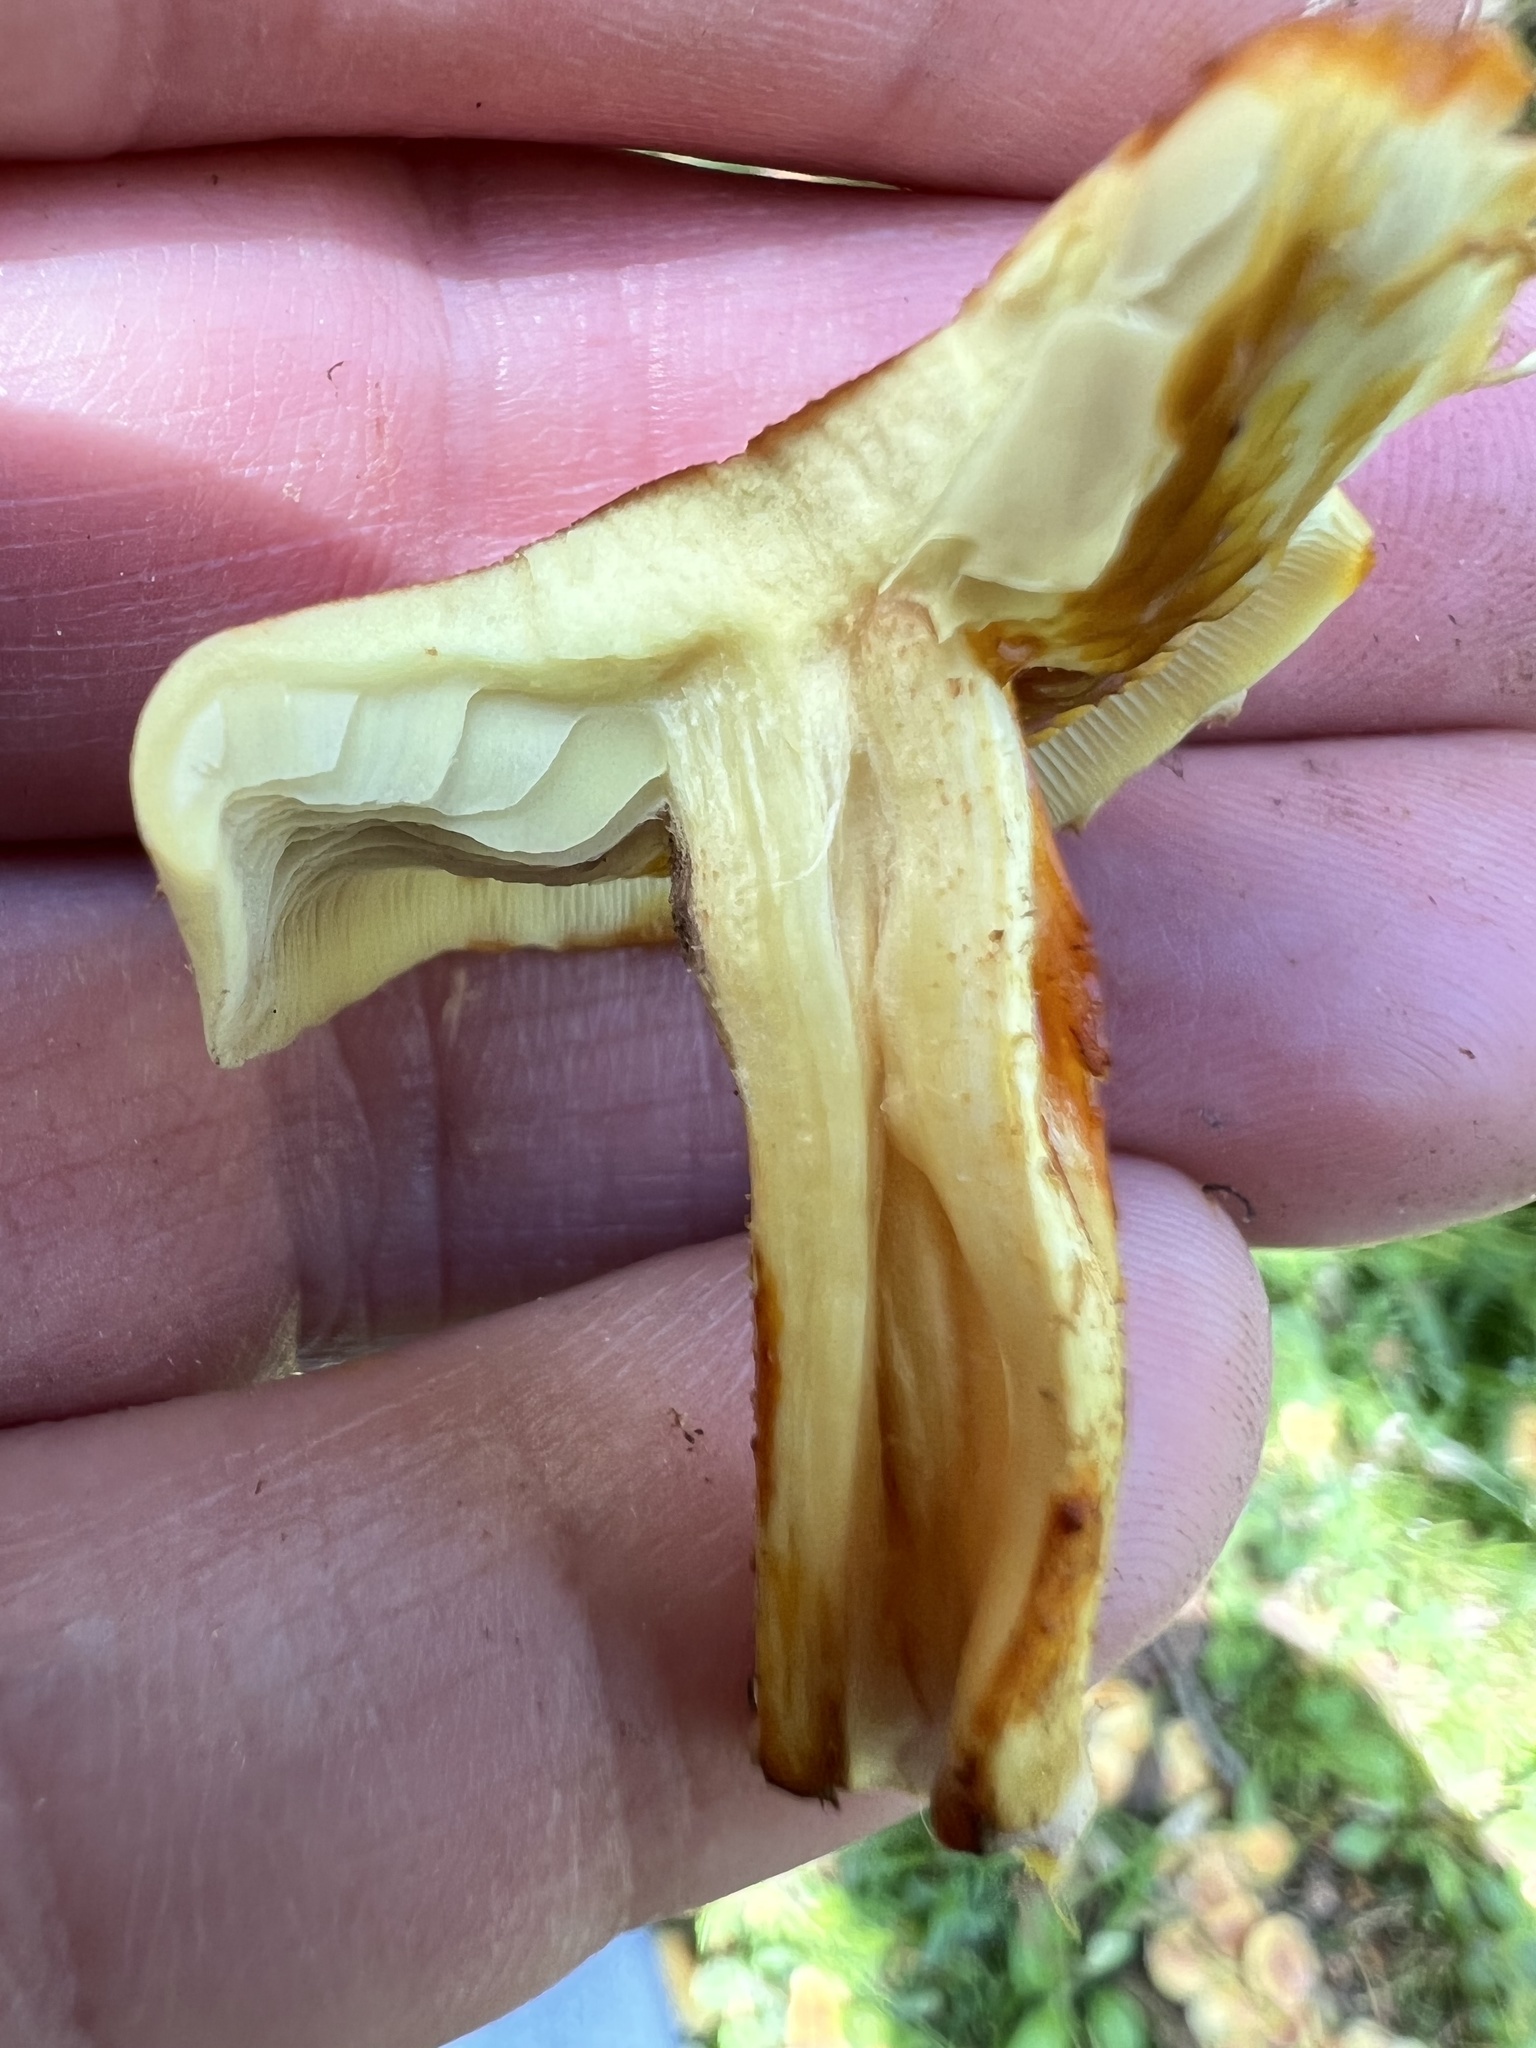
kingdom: Fungi
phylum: Basidiomycota
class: Agaricomycetes
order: Agaricales
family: Strophariaceae
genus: Hypholoma
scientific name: Hypholoma fasciculare
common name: Sulphur tuft
